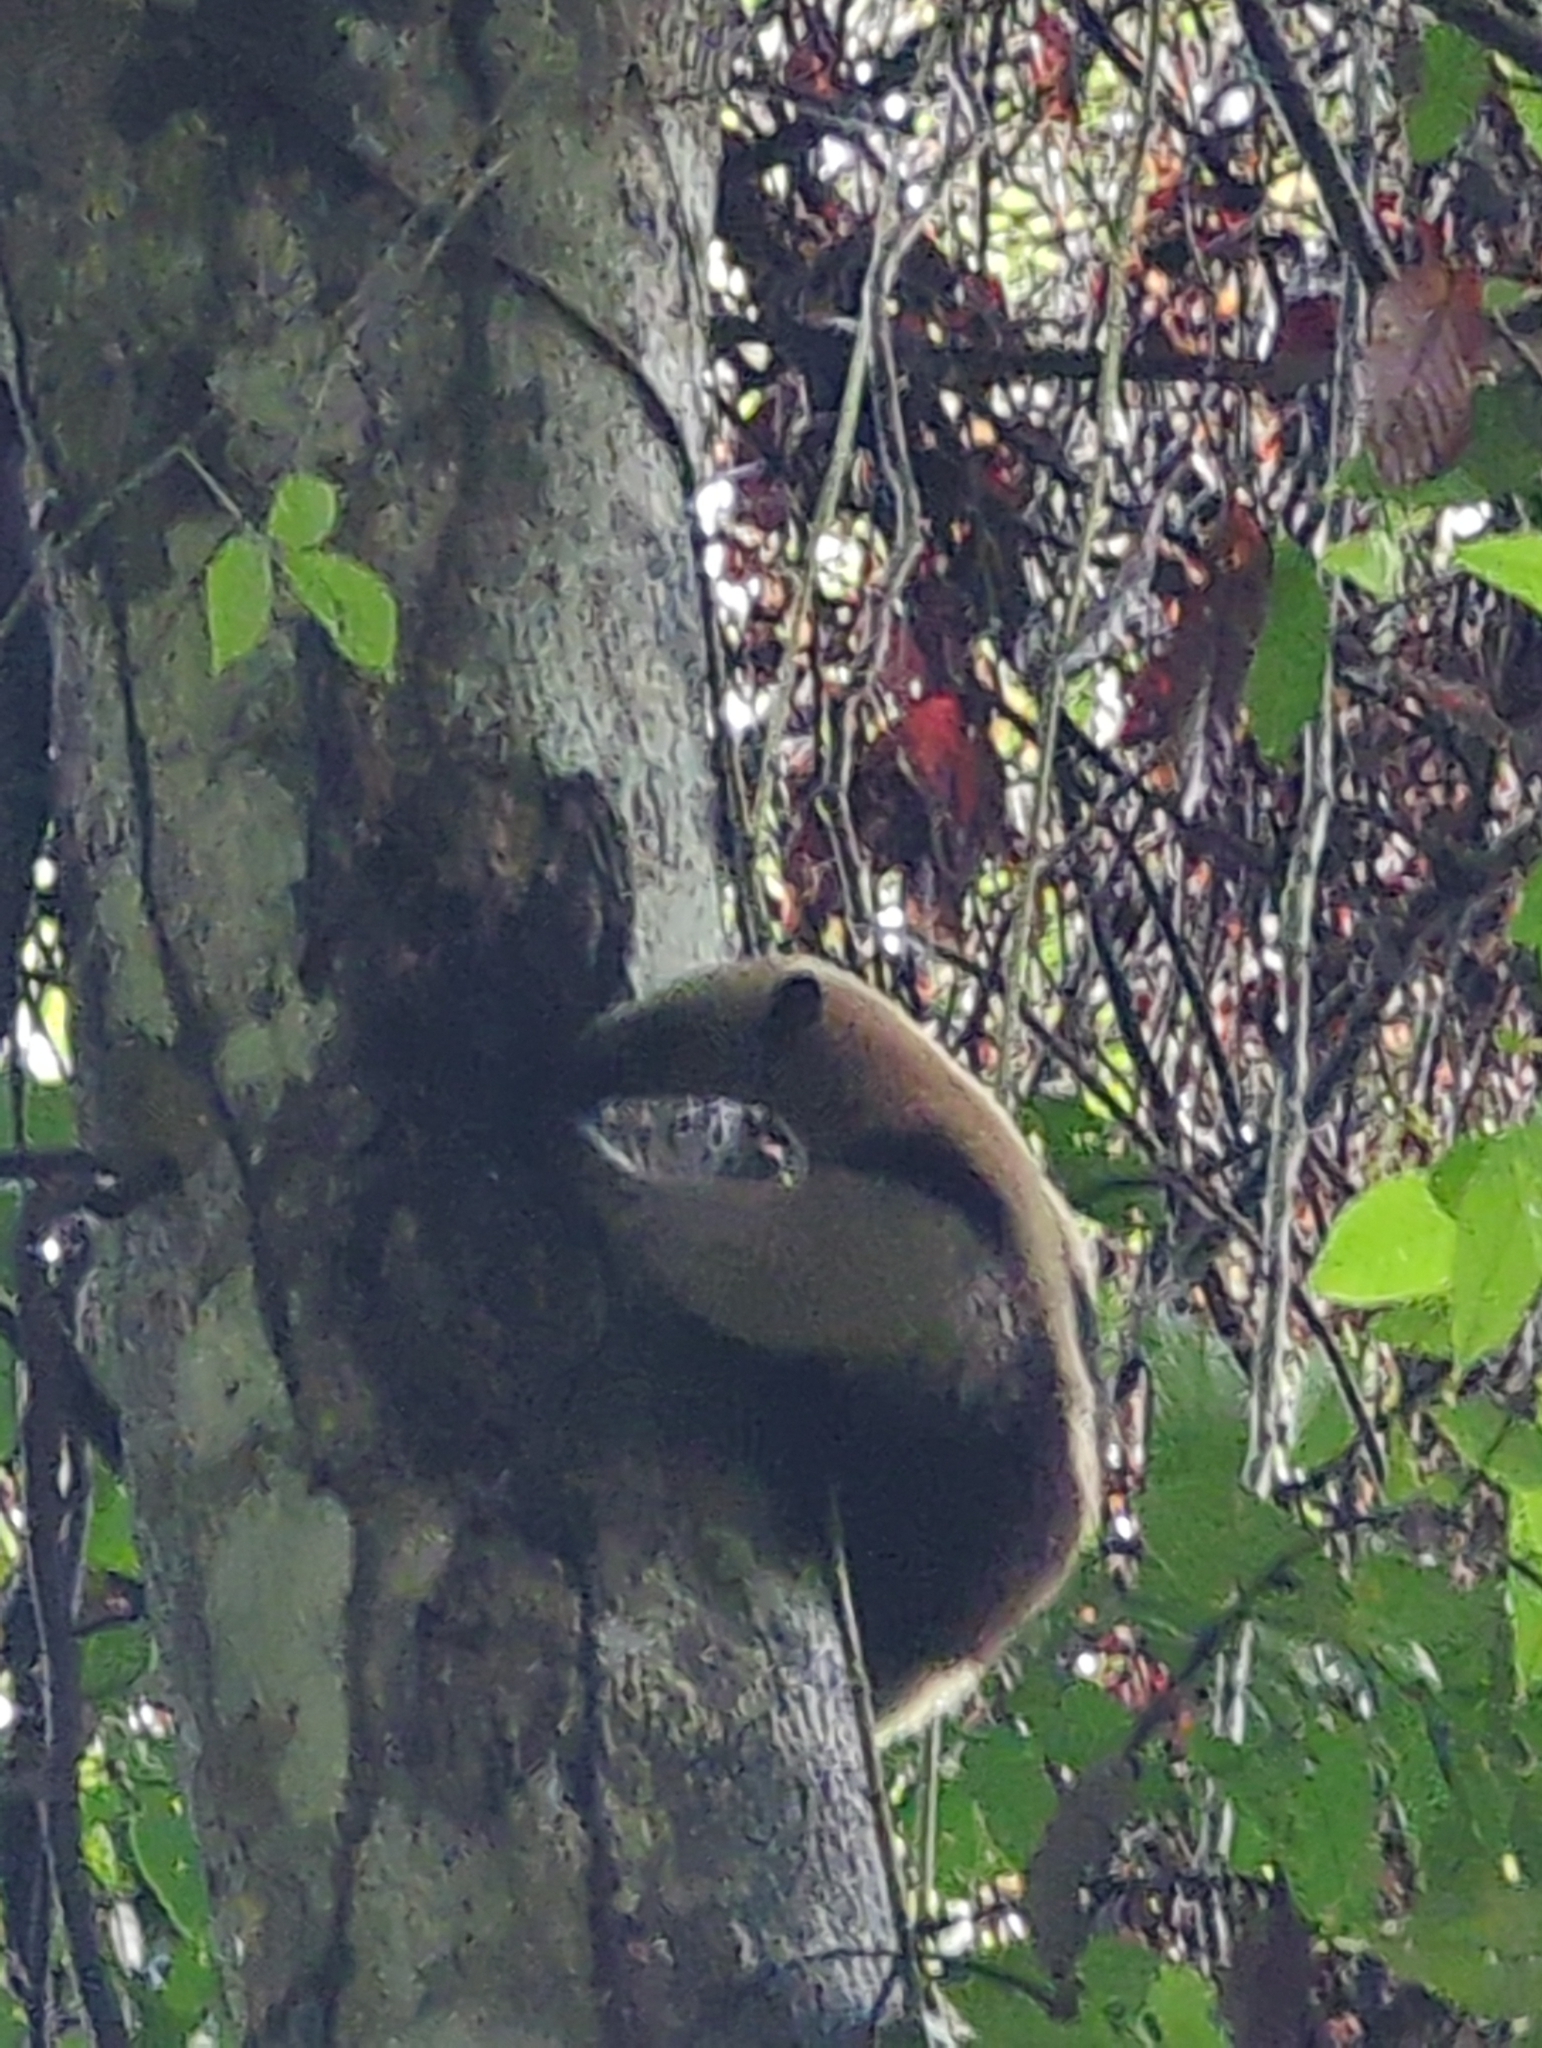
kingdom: Animalia
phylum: Chordata
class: Mammalia
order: Pilosa
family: Myrmecophagidae
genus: Tamandua
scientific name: Tamandua mexicana
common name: Northern tamandua
